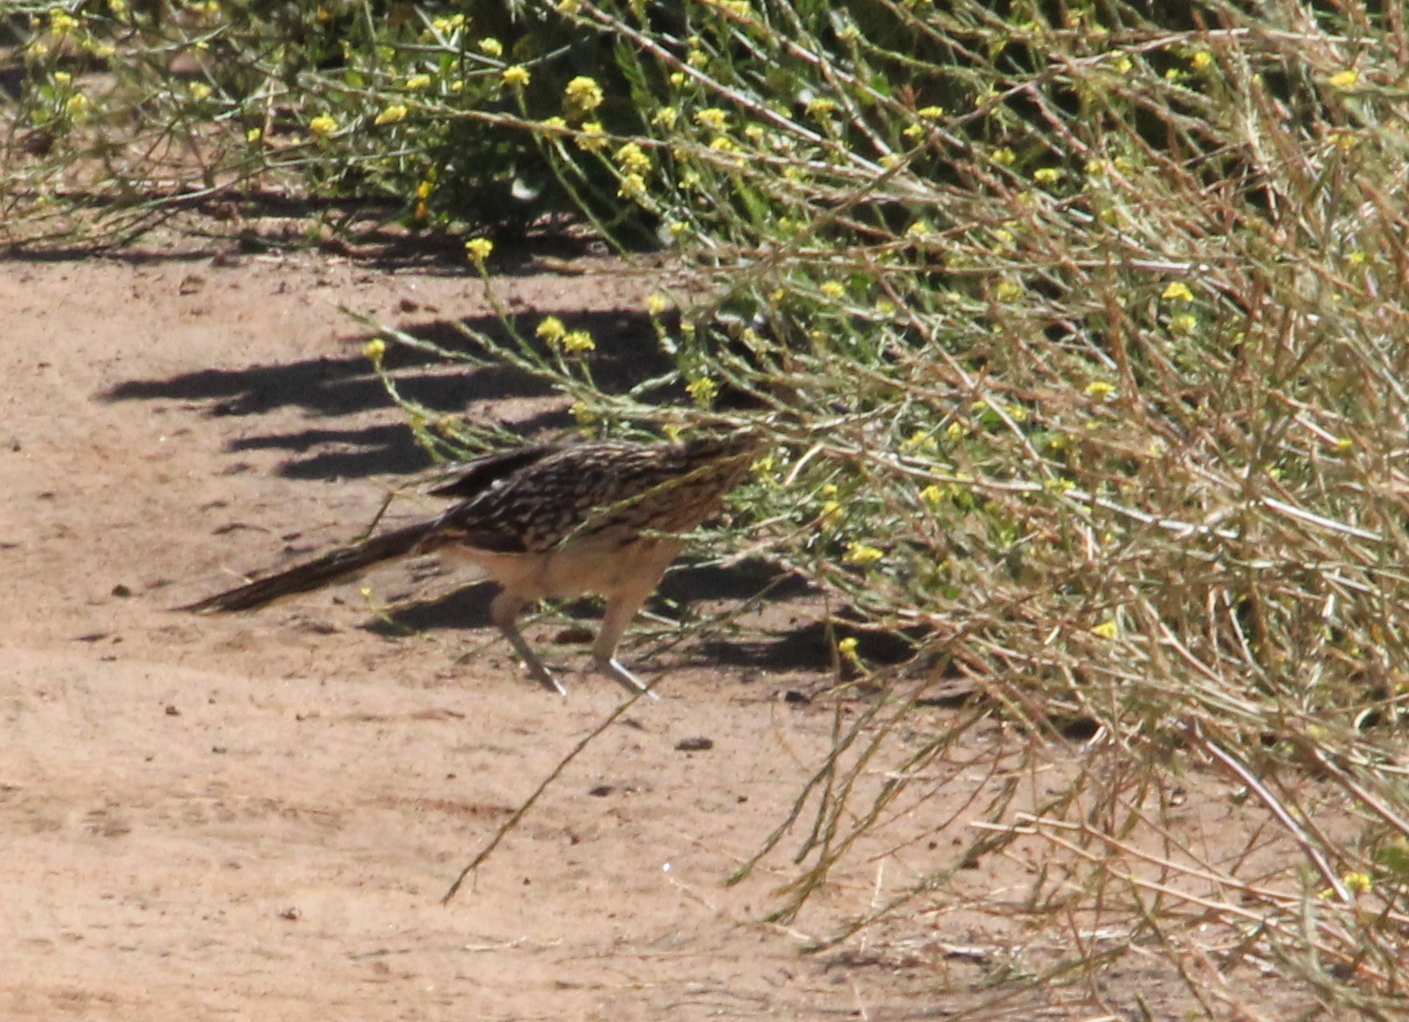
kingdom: Animalia
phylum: Chordata
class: Aves
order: Cuculiformes
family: Cuculidae
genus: Geococcyx
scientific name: Geococcyx californianus
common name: Greater roadrunner
